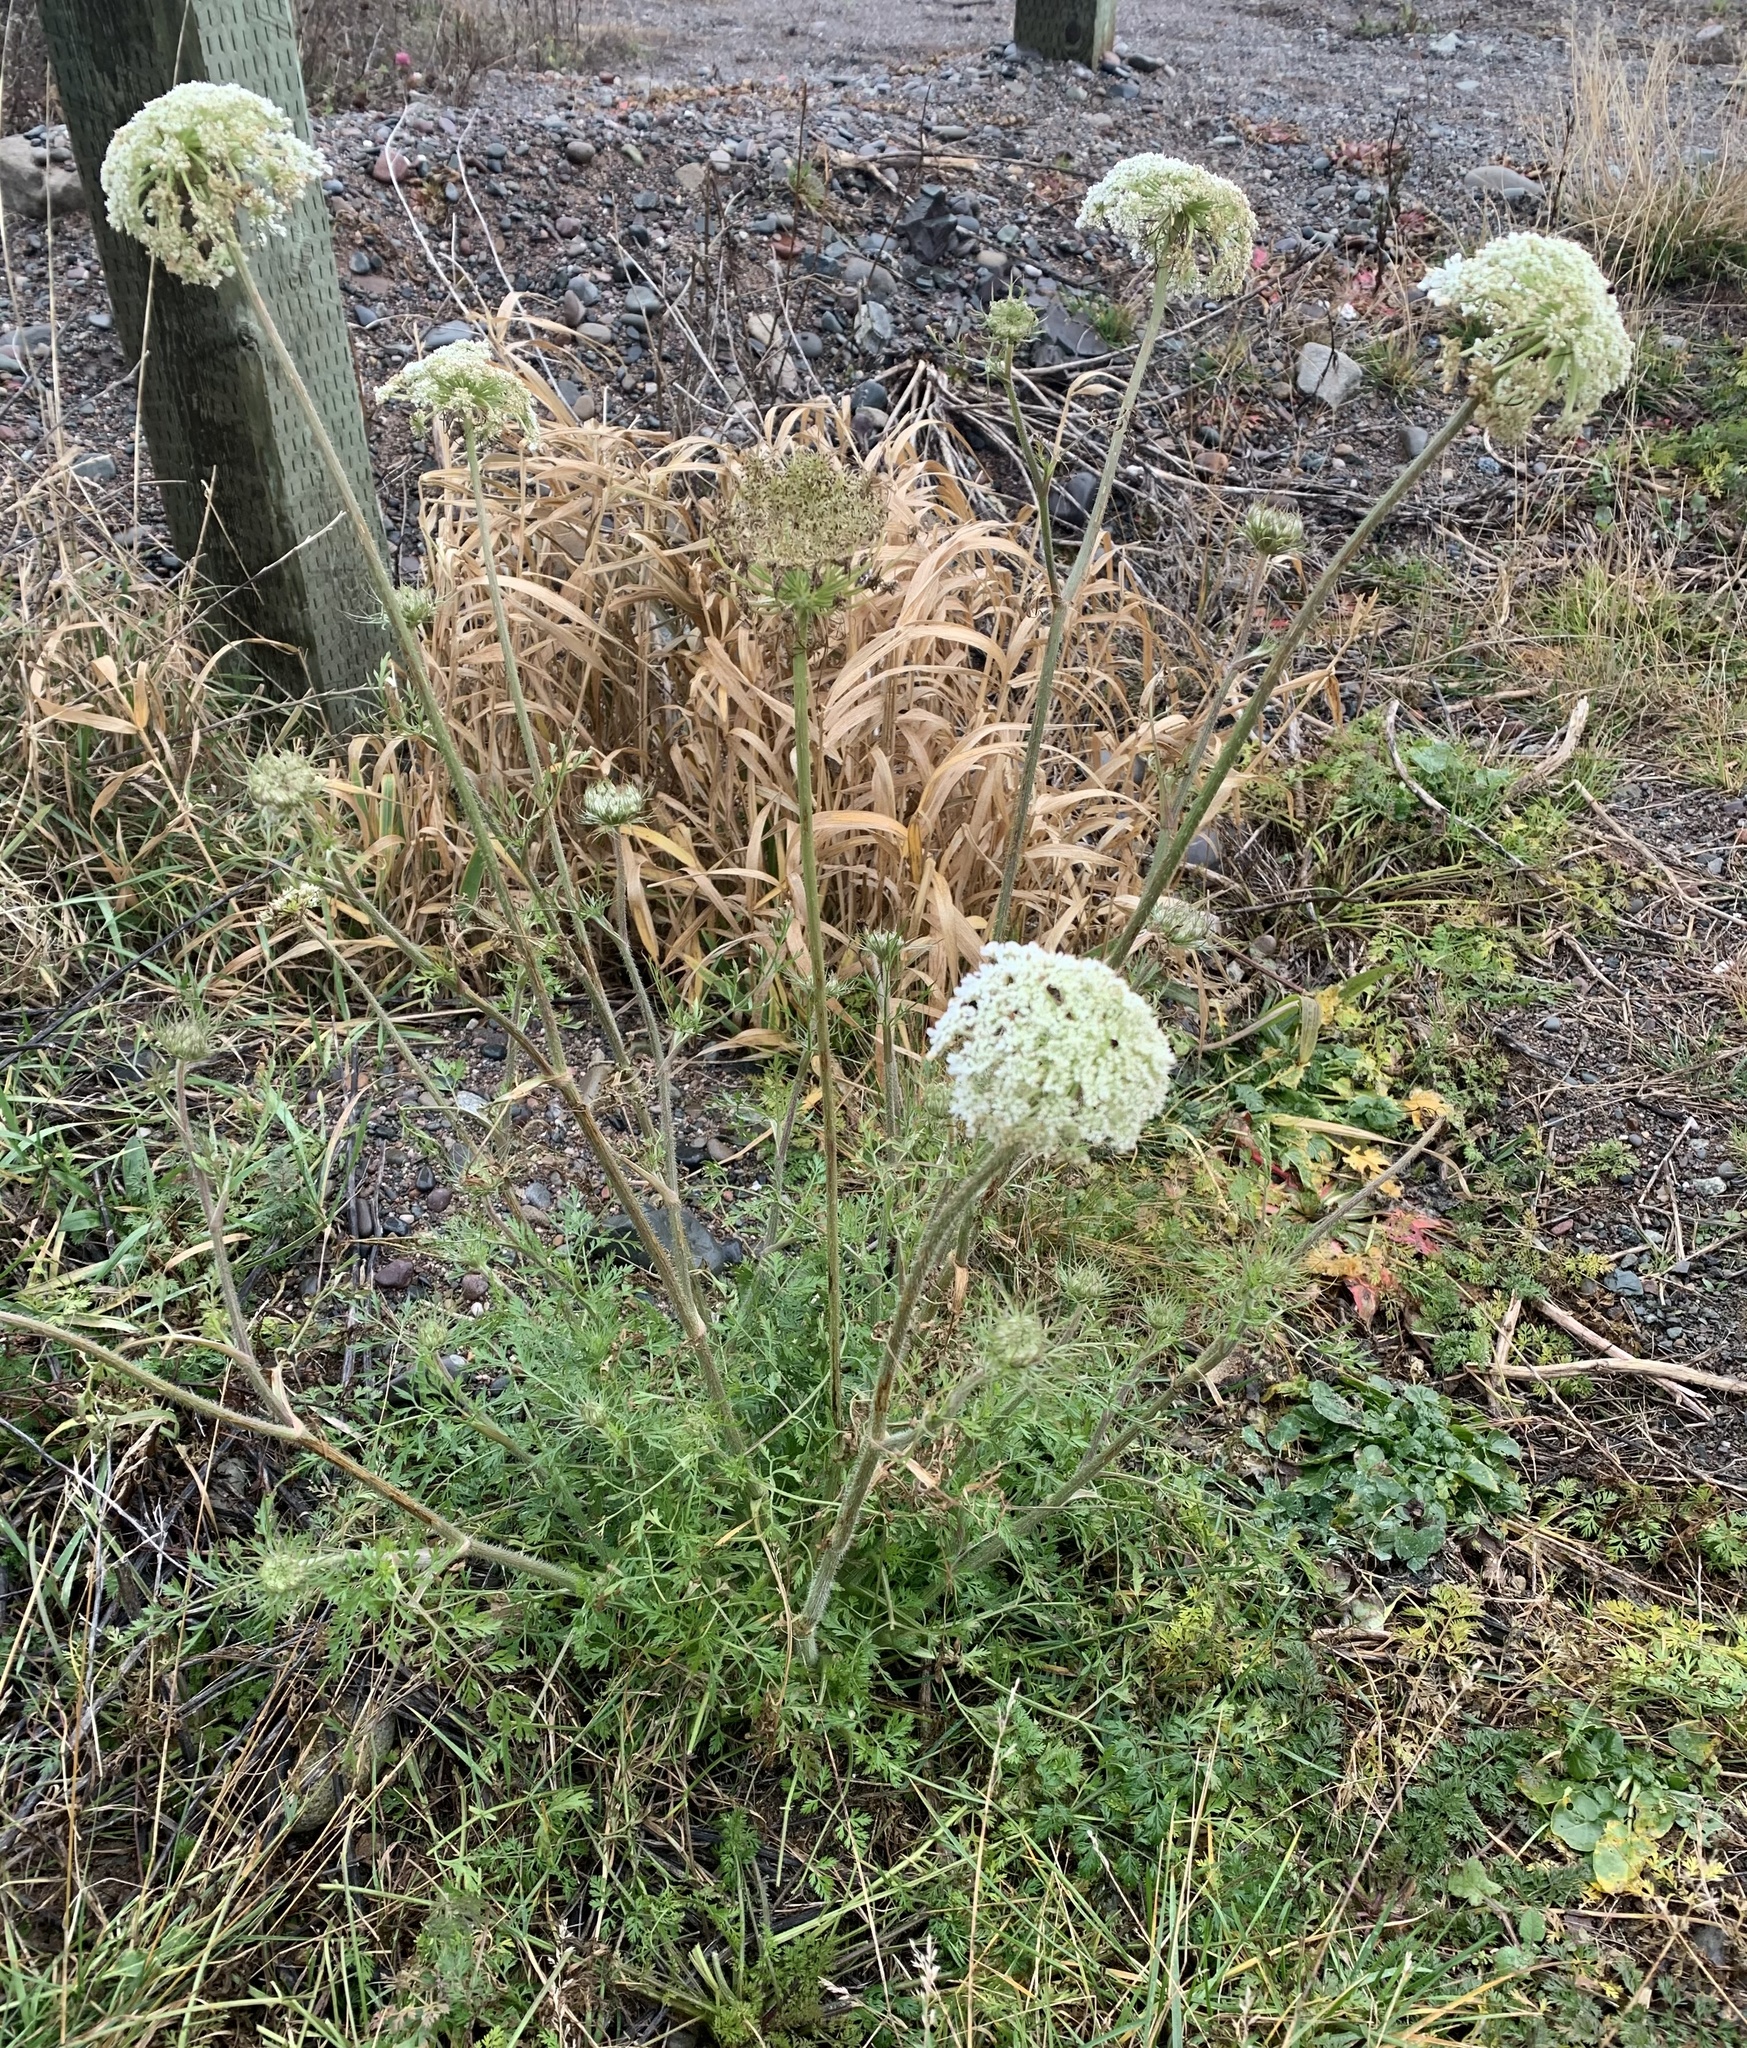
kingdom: Plantae
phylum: Tracheophyta
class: Magnoliopsida
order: Apiales
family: Apiaceae
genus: Daucus
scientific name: Daucus carota
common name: Wild carrot
